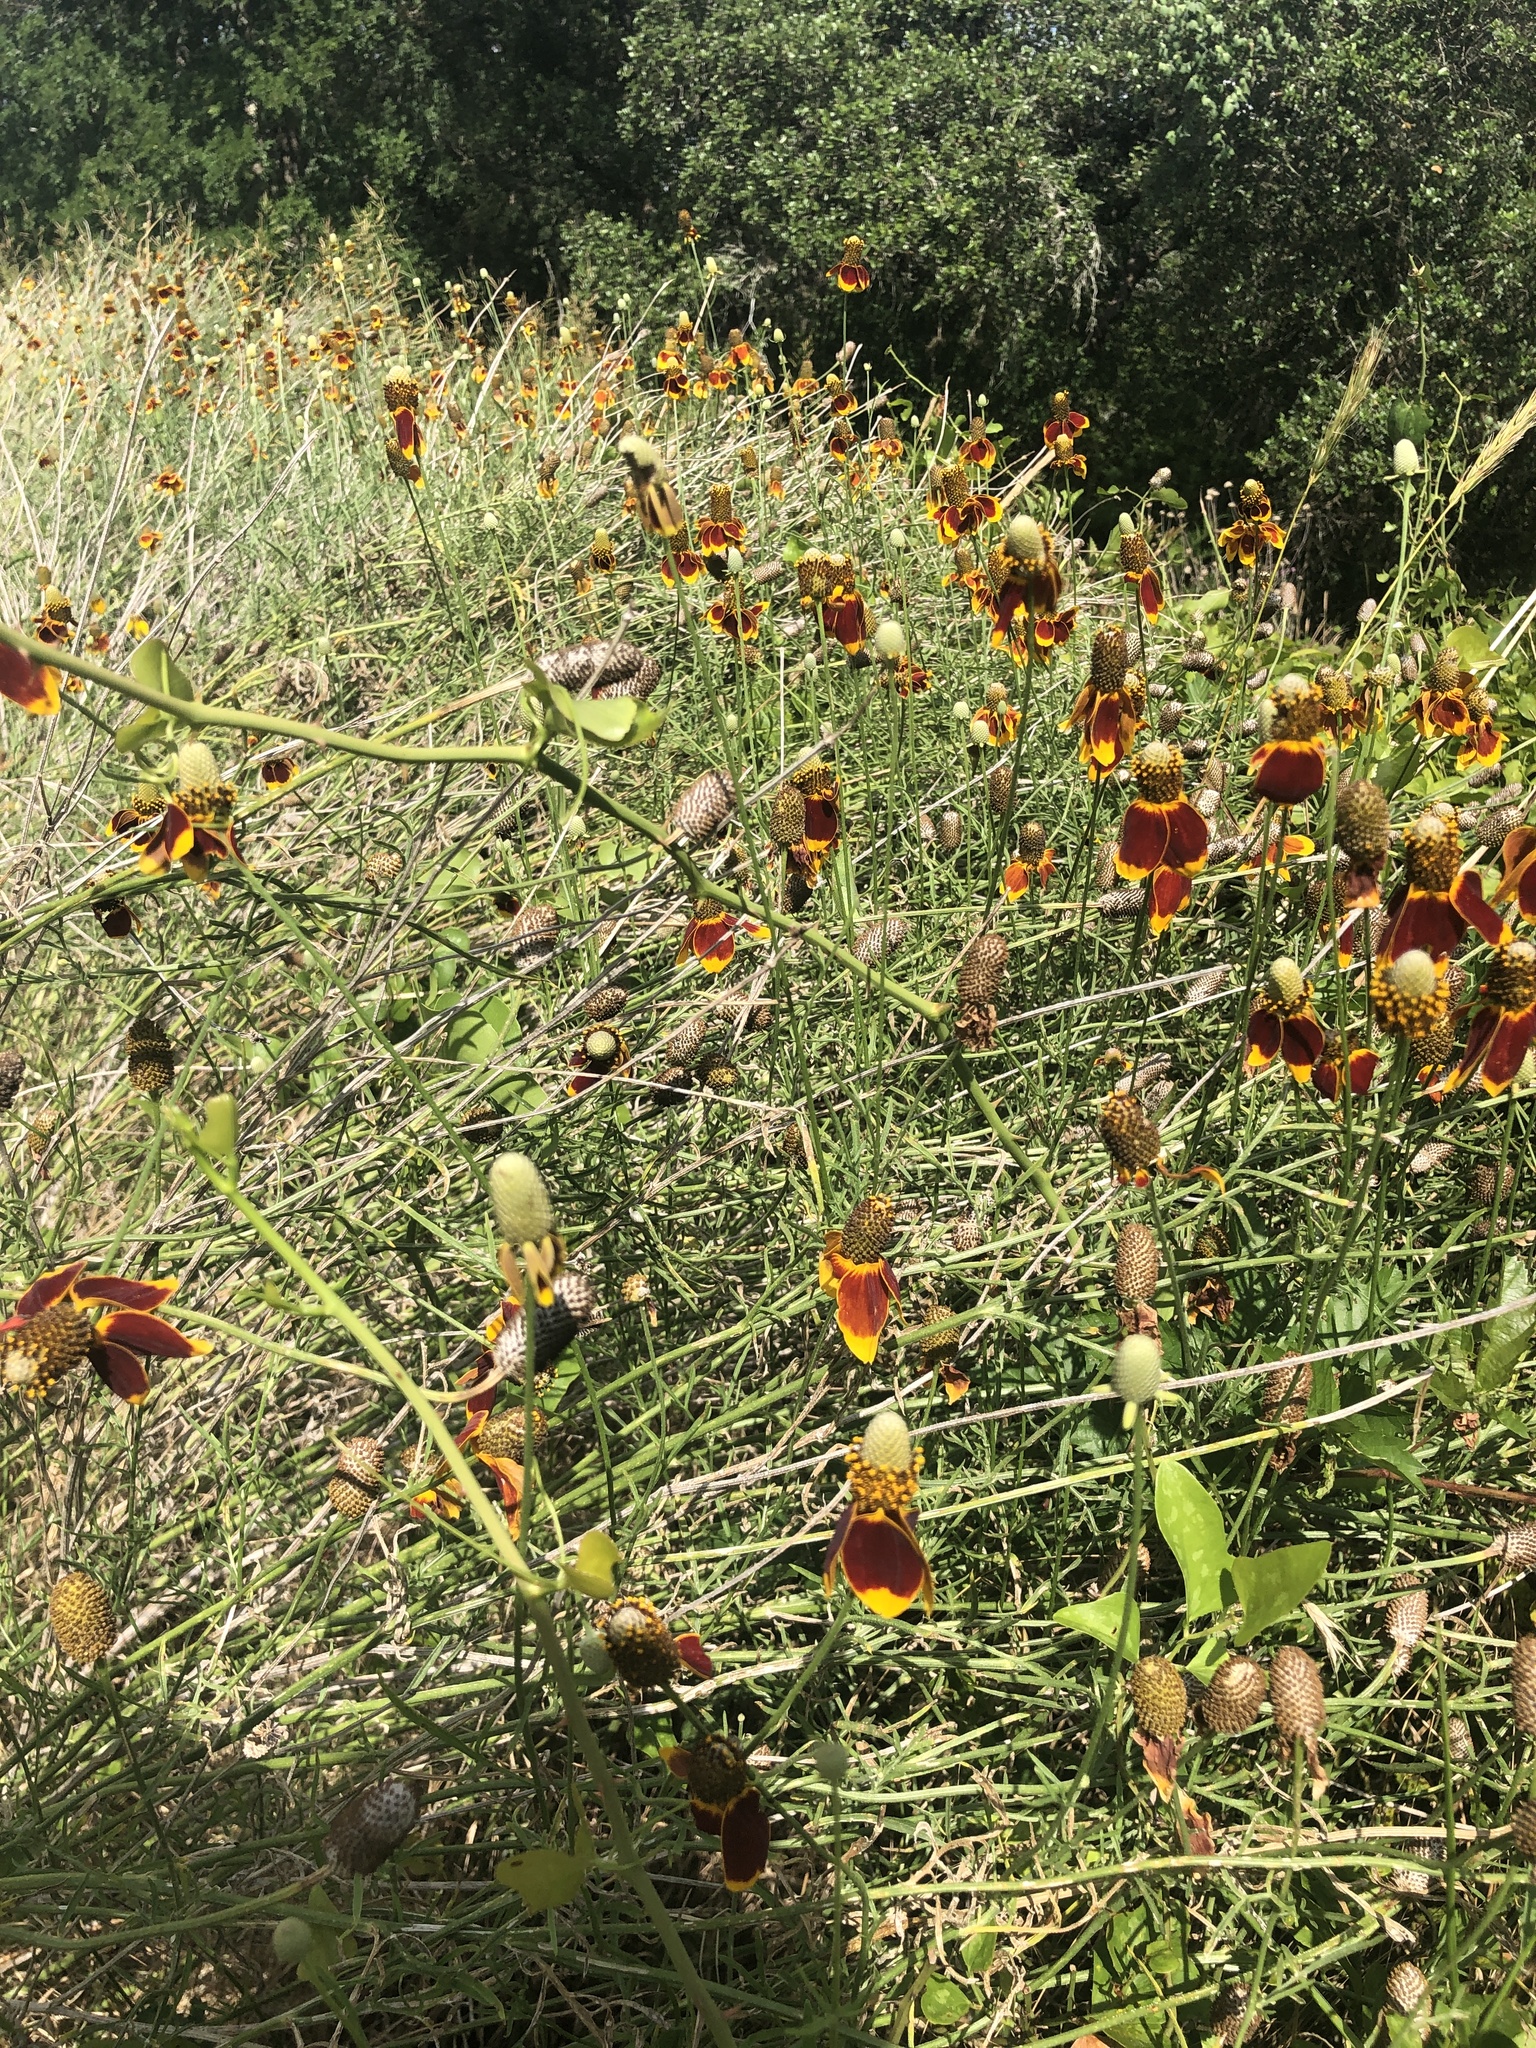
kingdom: Plantae
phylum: Tracheophyta
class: Magnoliopsida
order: Asterales
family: Asteraceae
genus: Ratibida
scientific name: Ratibida columnifera
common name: Prairie coneflower
